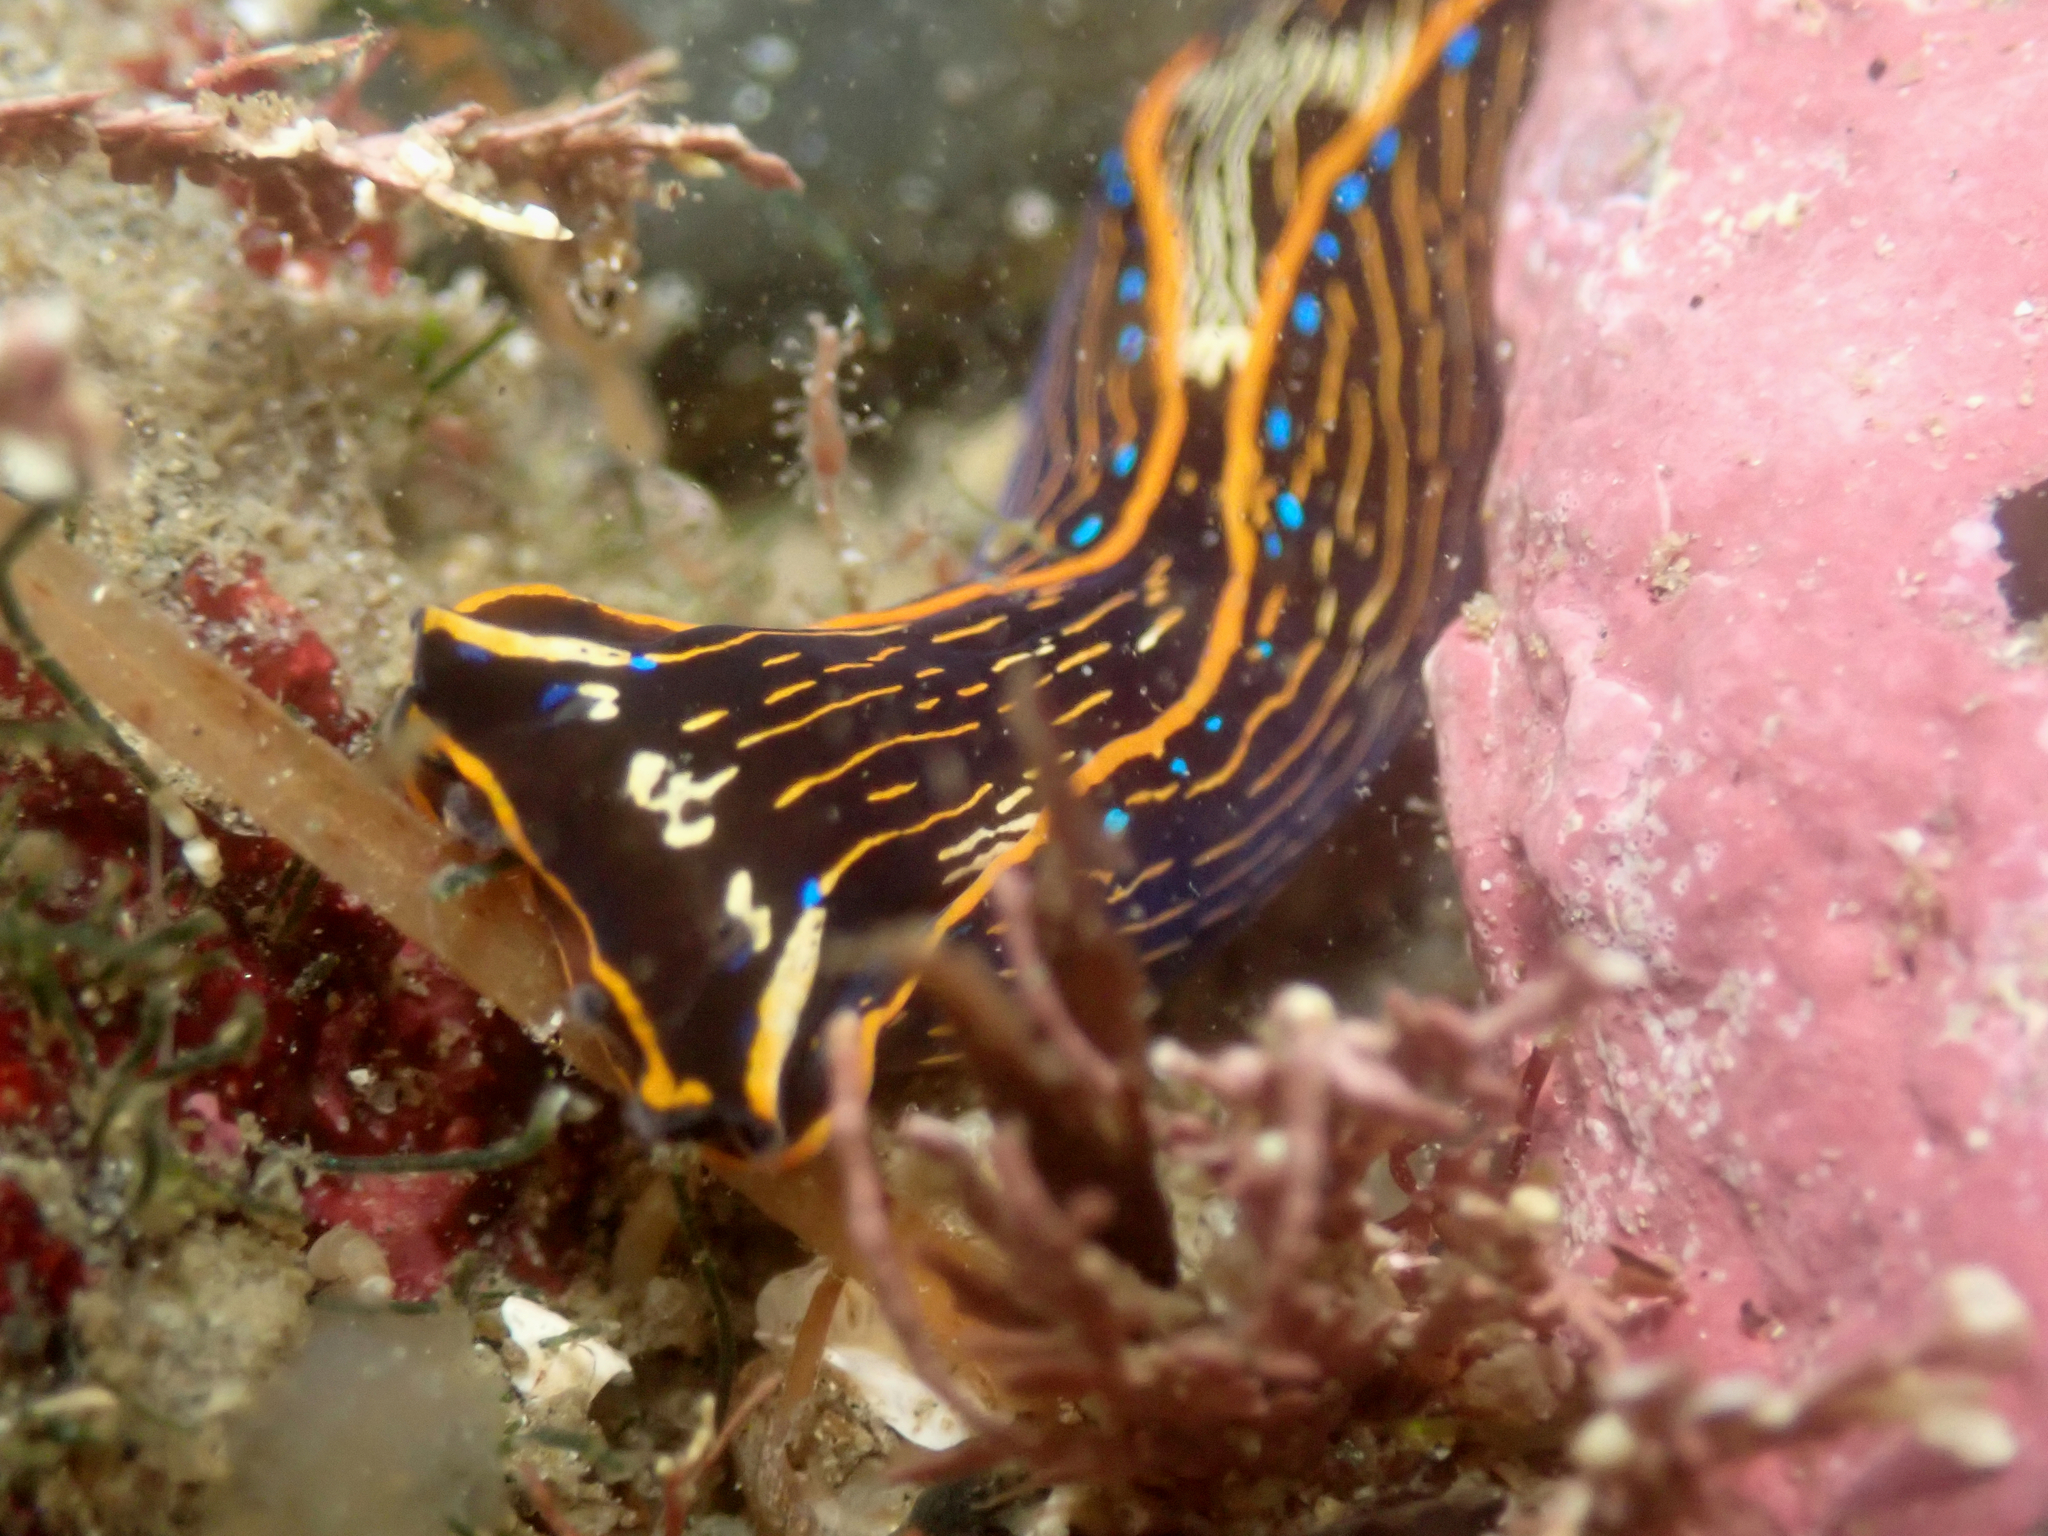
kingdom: Animalia
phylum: Mollusca
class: Gastropoda
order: Cephalaspidea
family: Aglajidae
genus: Navanax
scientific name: Navanax inermis
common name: California aglaja
